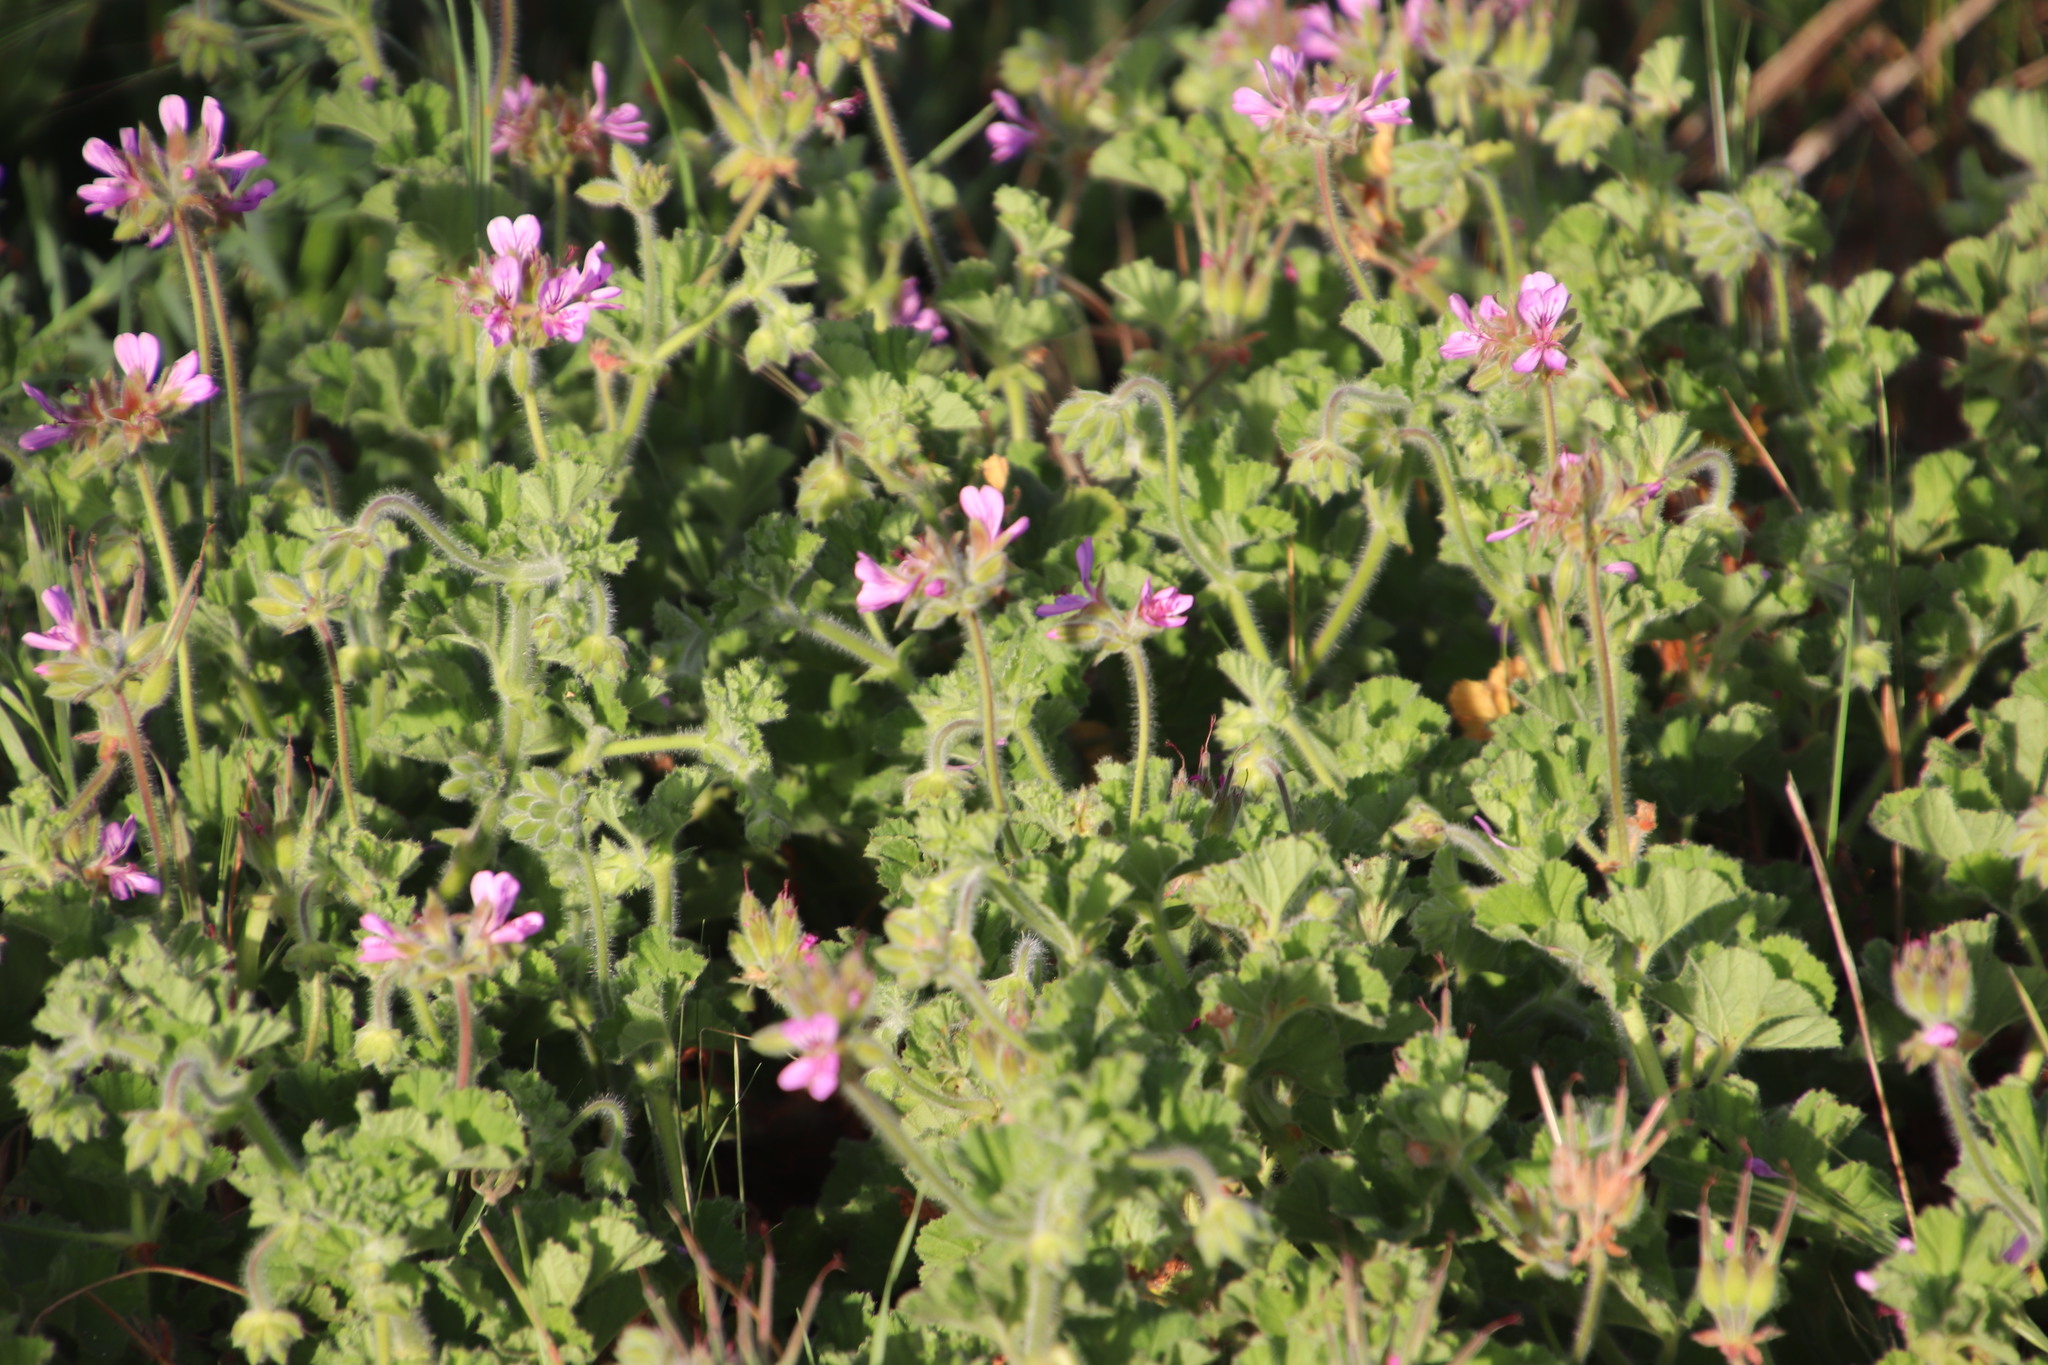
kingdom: Plantae
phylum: Tracheophyta
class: Magnoliopsida
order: Geraniales
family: Geraniaceae
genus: Pelargonium
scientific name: Pelargonium capitatum
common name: Rose scented geranium
